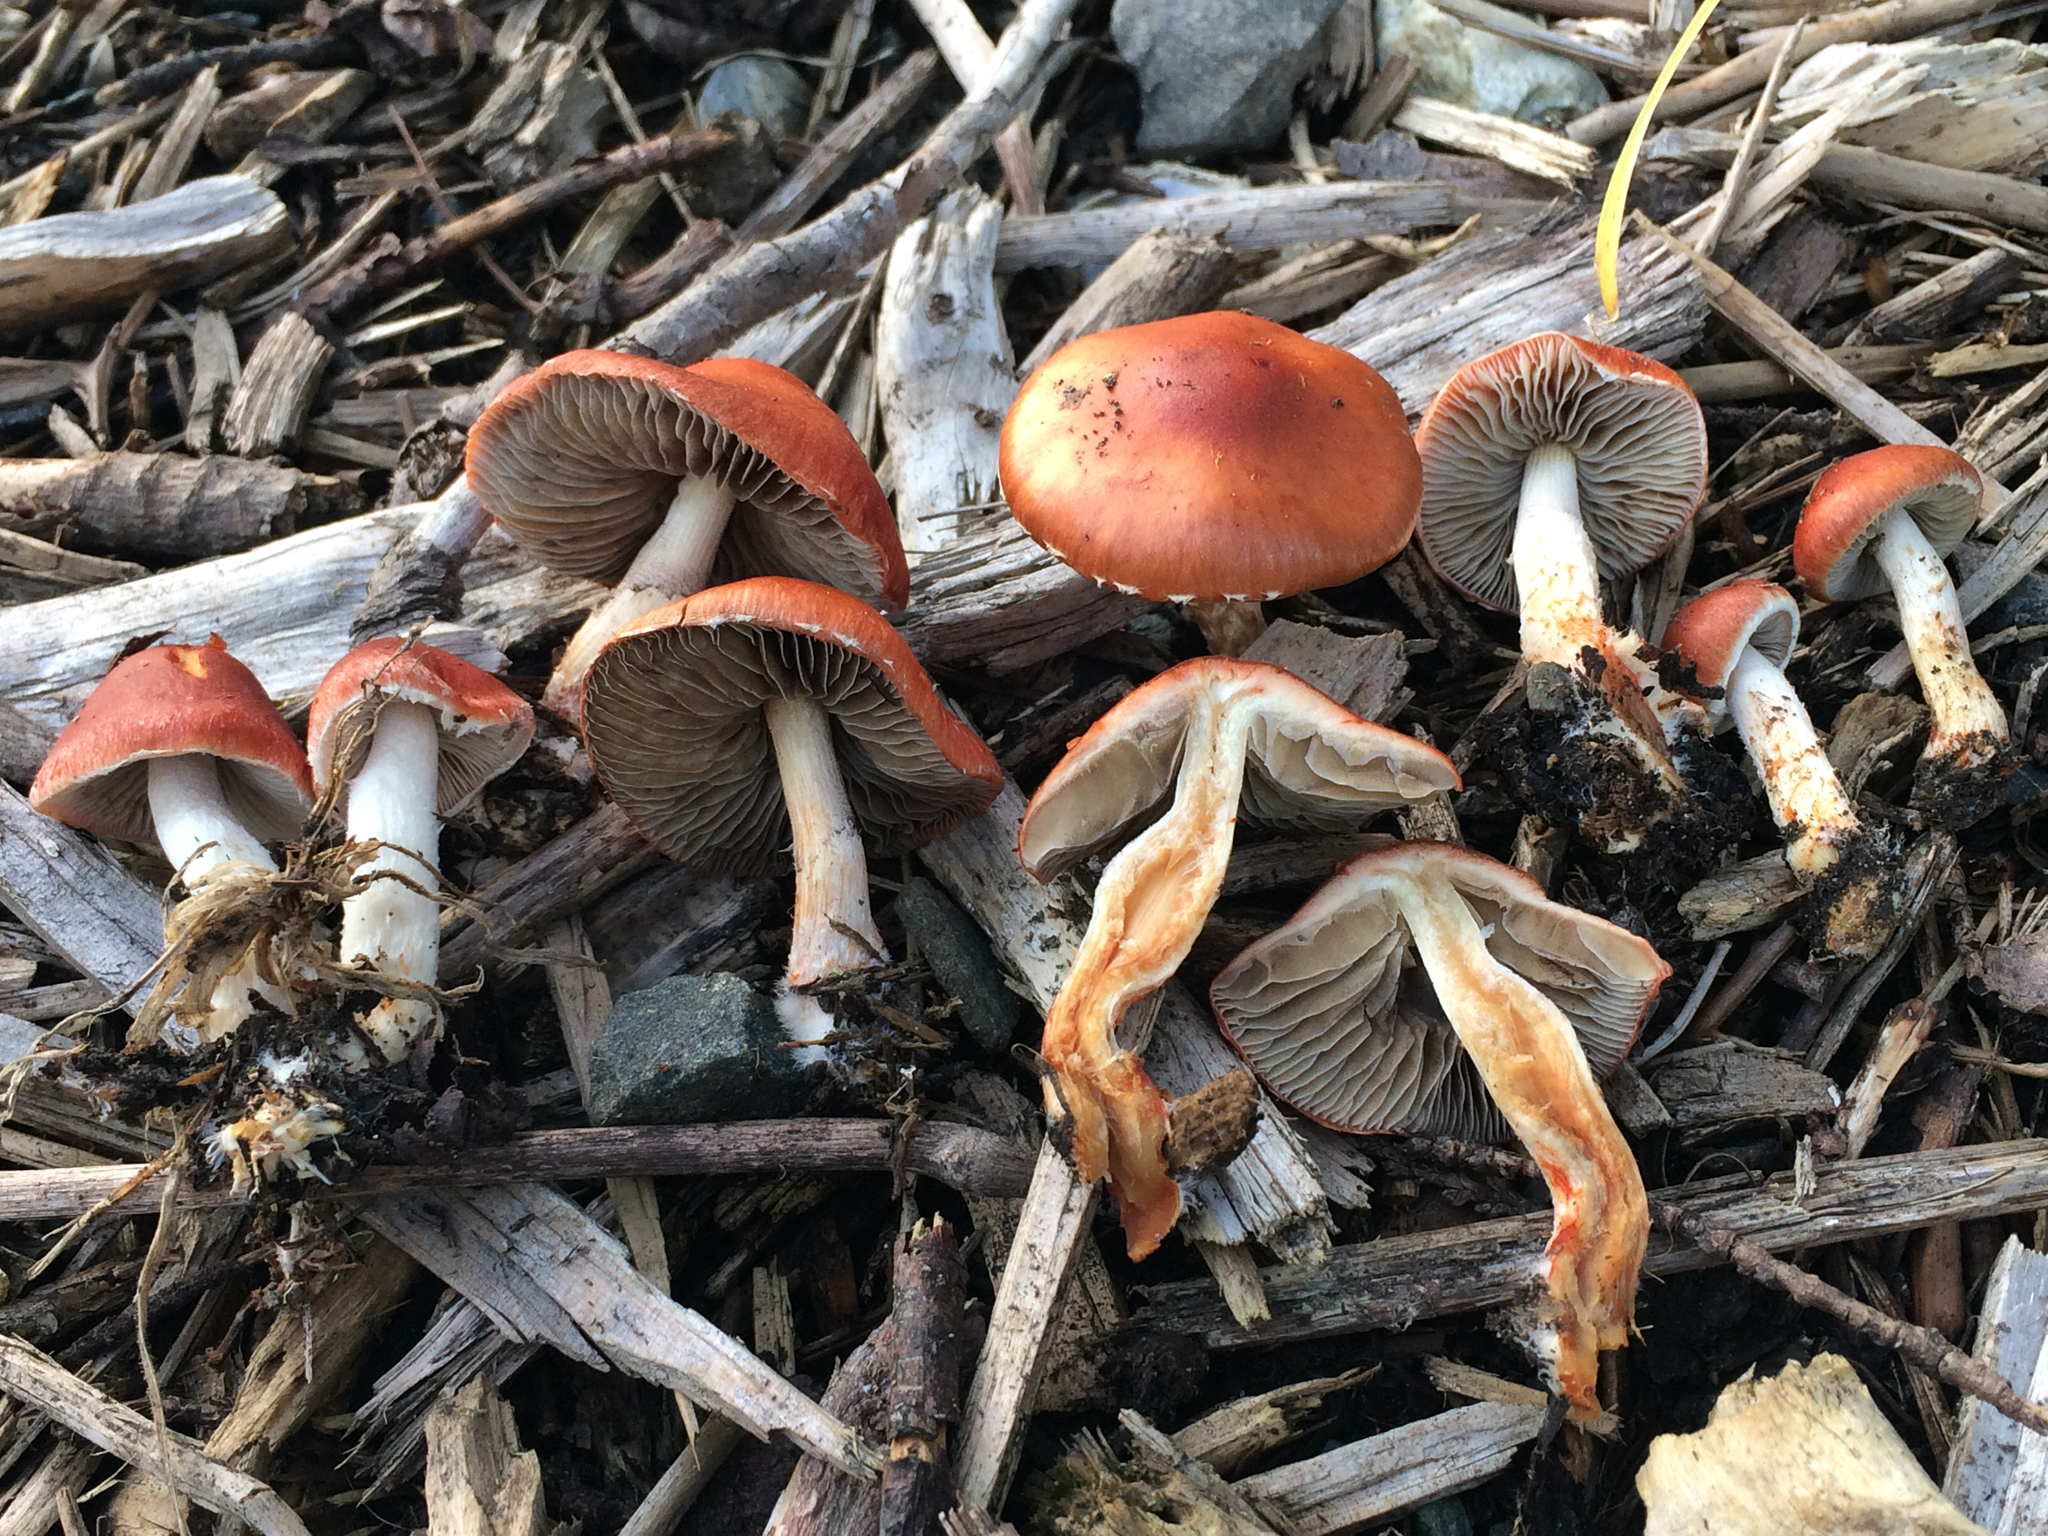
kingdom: Fungi
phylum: Basidiomycota
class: Agaricomycetes
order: Agaricales
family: Strophariaceae
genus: Leratiomyces
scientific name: Leratiomyces ceres
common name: Redlead roundhead
